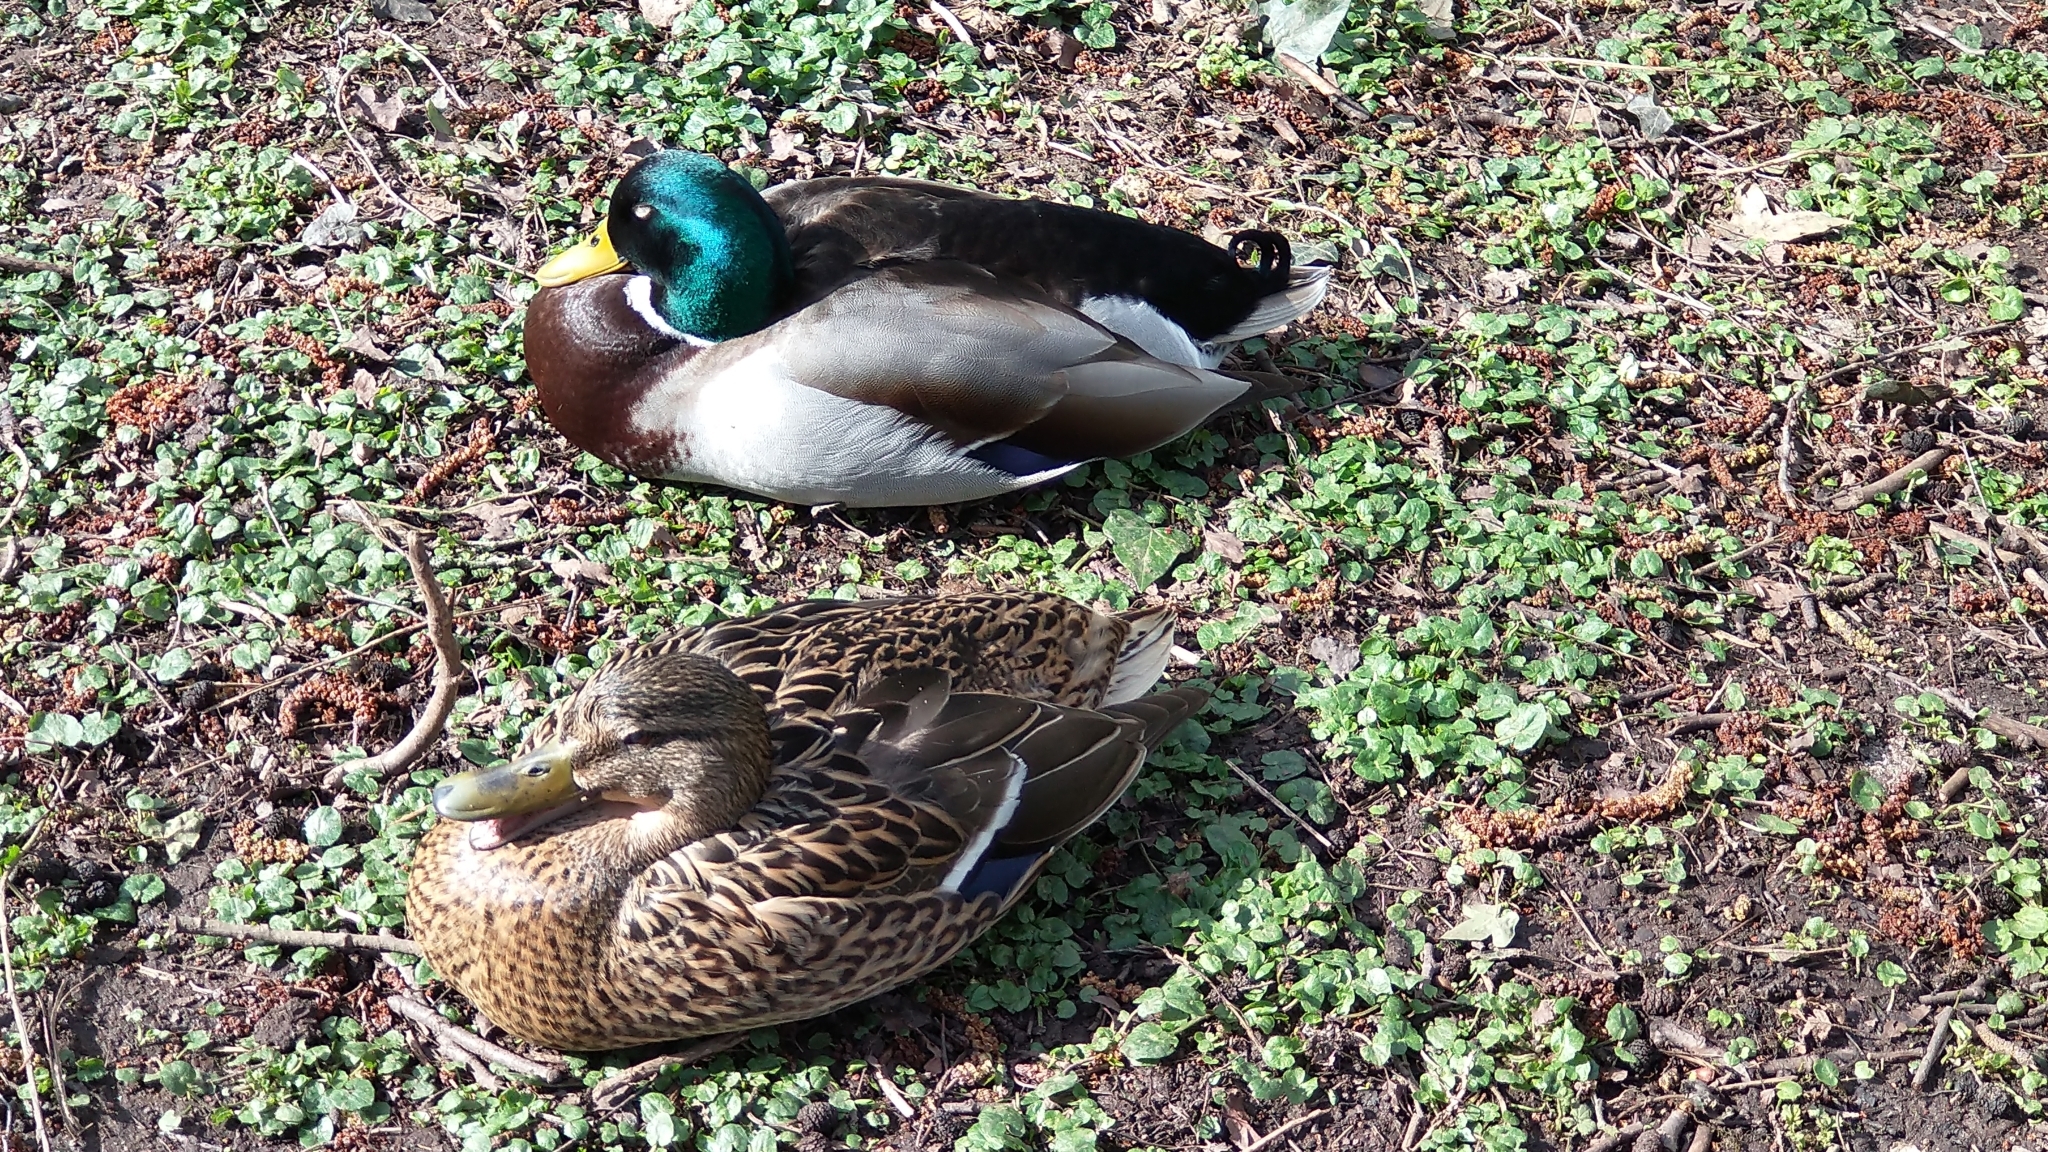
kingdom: Animalia
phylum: Chordata
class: Aves
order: Anseriformes
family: Anatidae
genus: Anas
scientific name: Anas platyrhynchos
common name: Mallard
